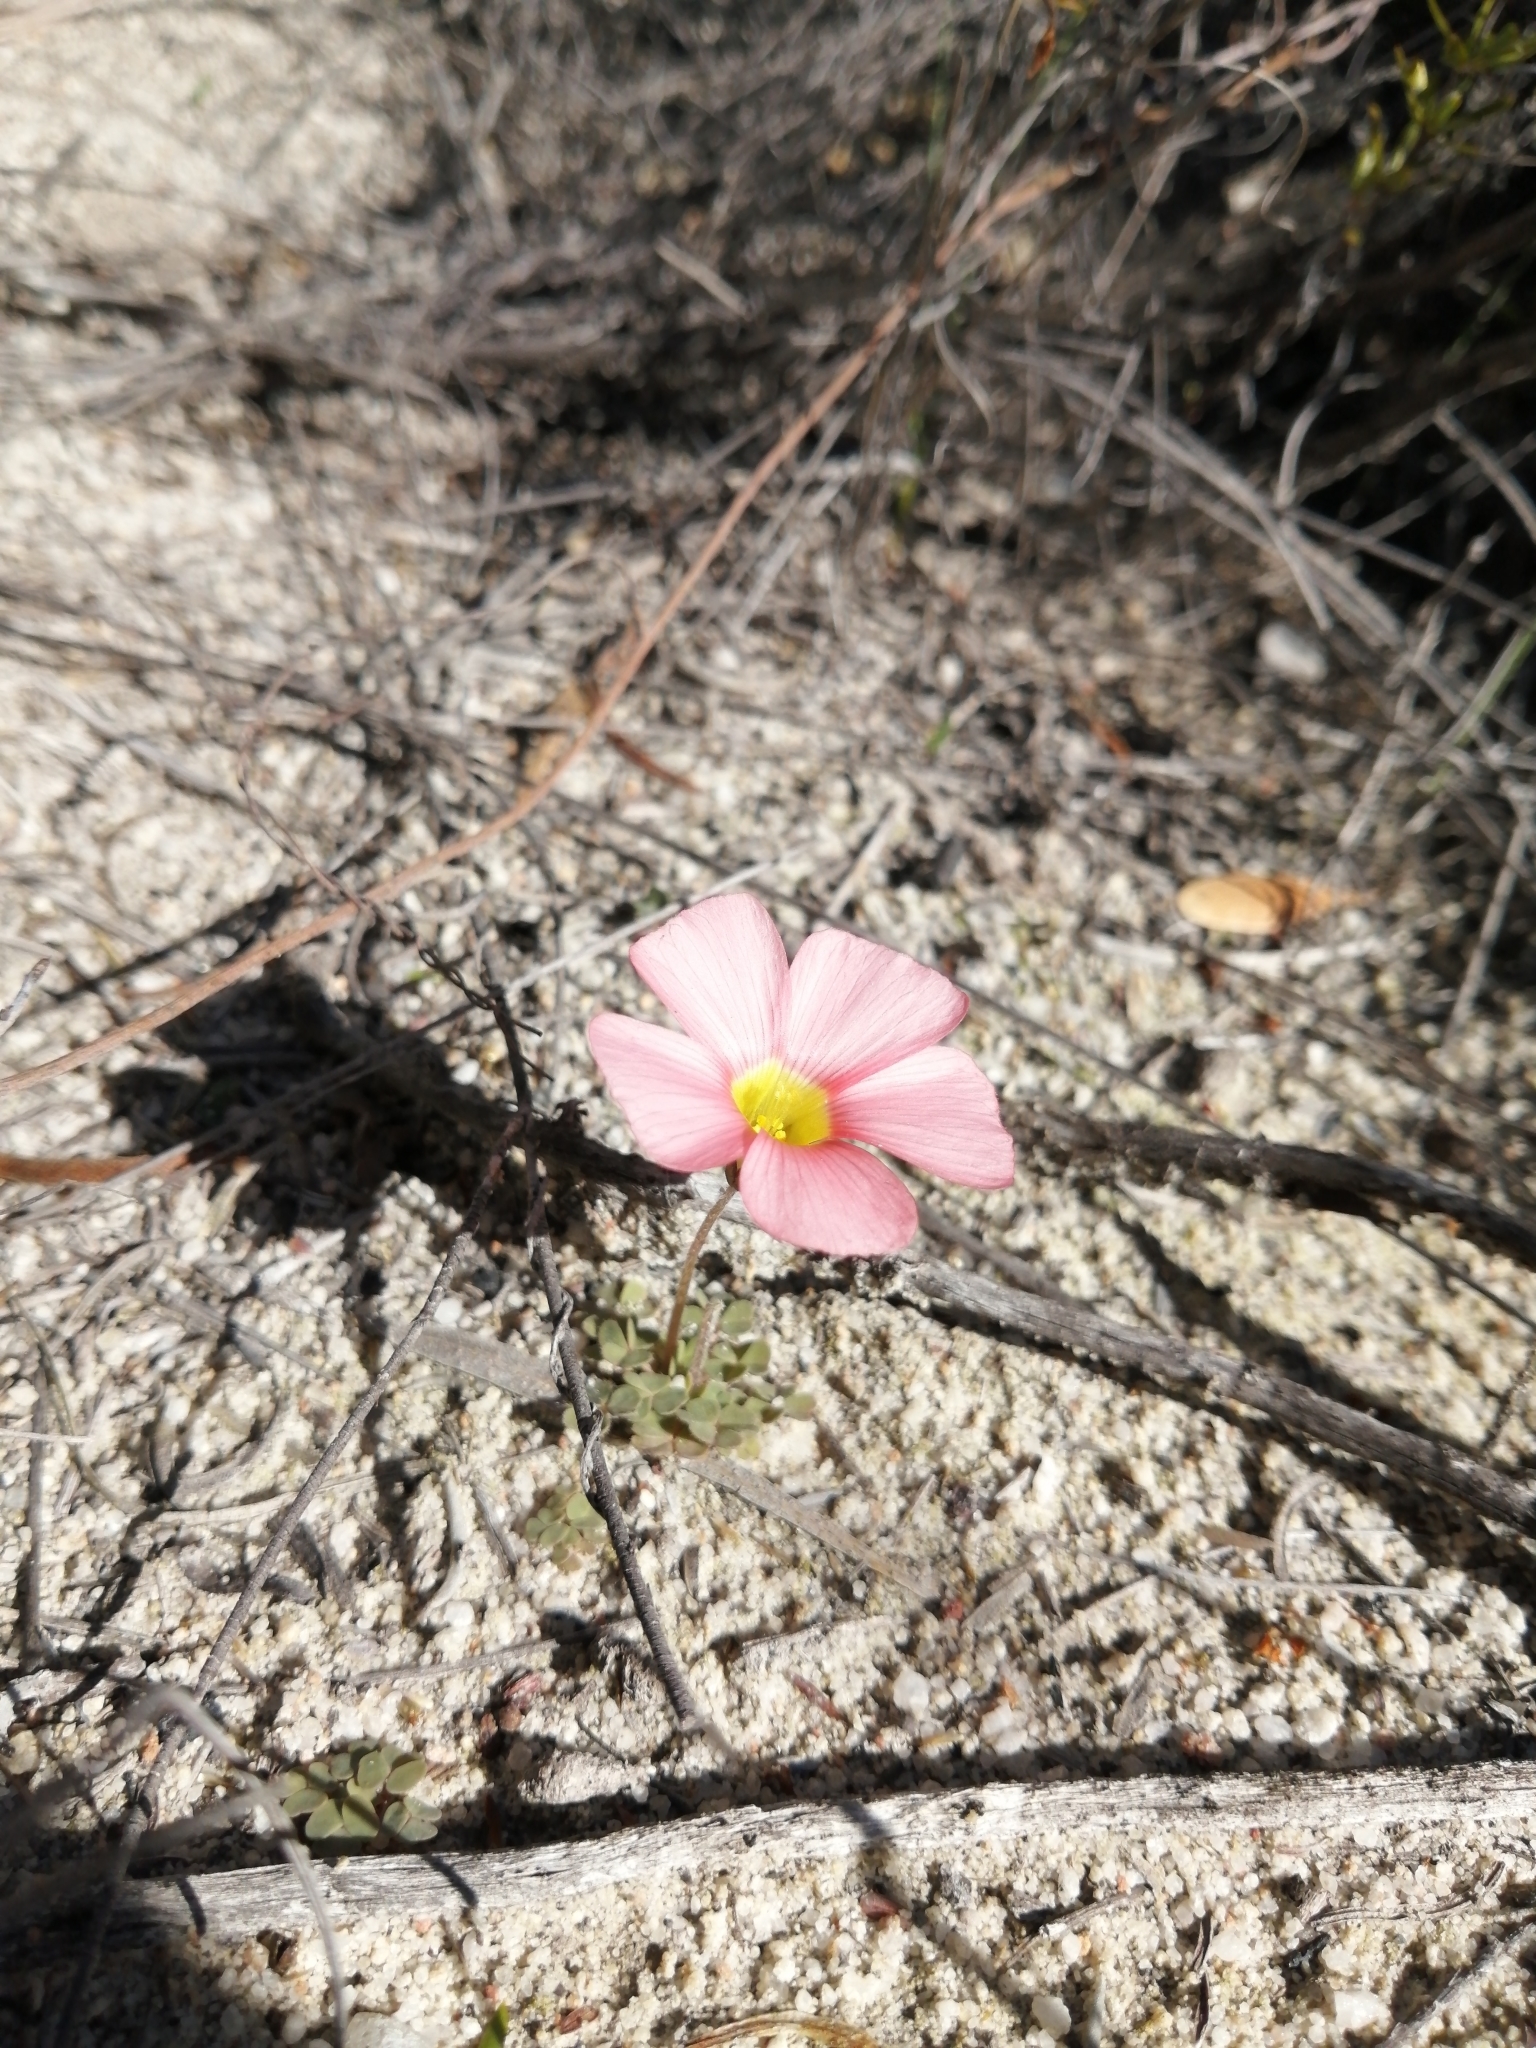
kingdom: Plantae
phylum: Tracheophyta
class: Magnoliopsida
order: Oxalidales
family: Oxalidaceae
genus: Oxalis
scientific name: Oxalis obtusa
